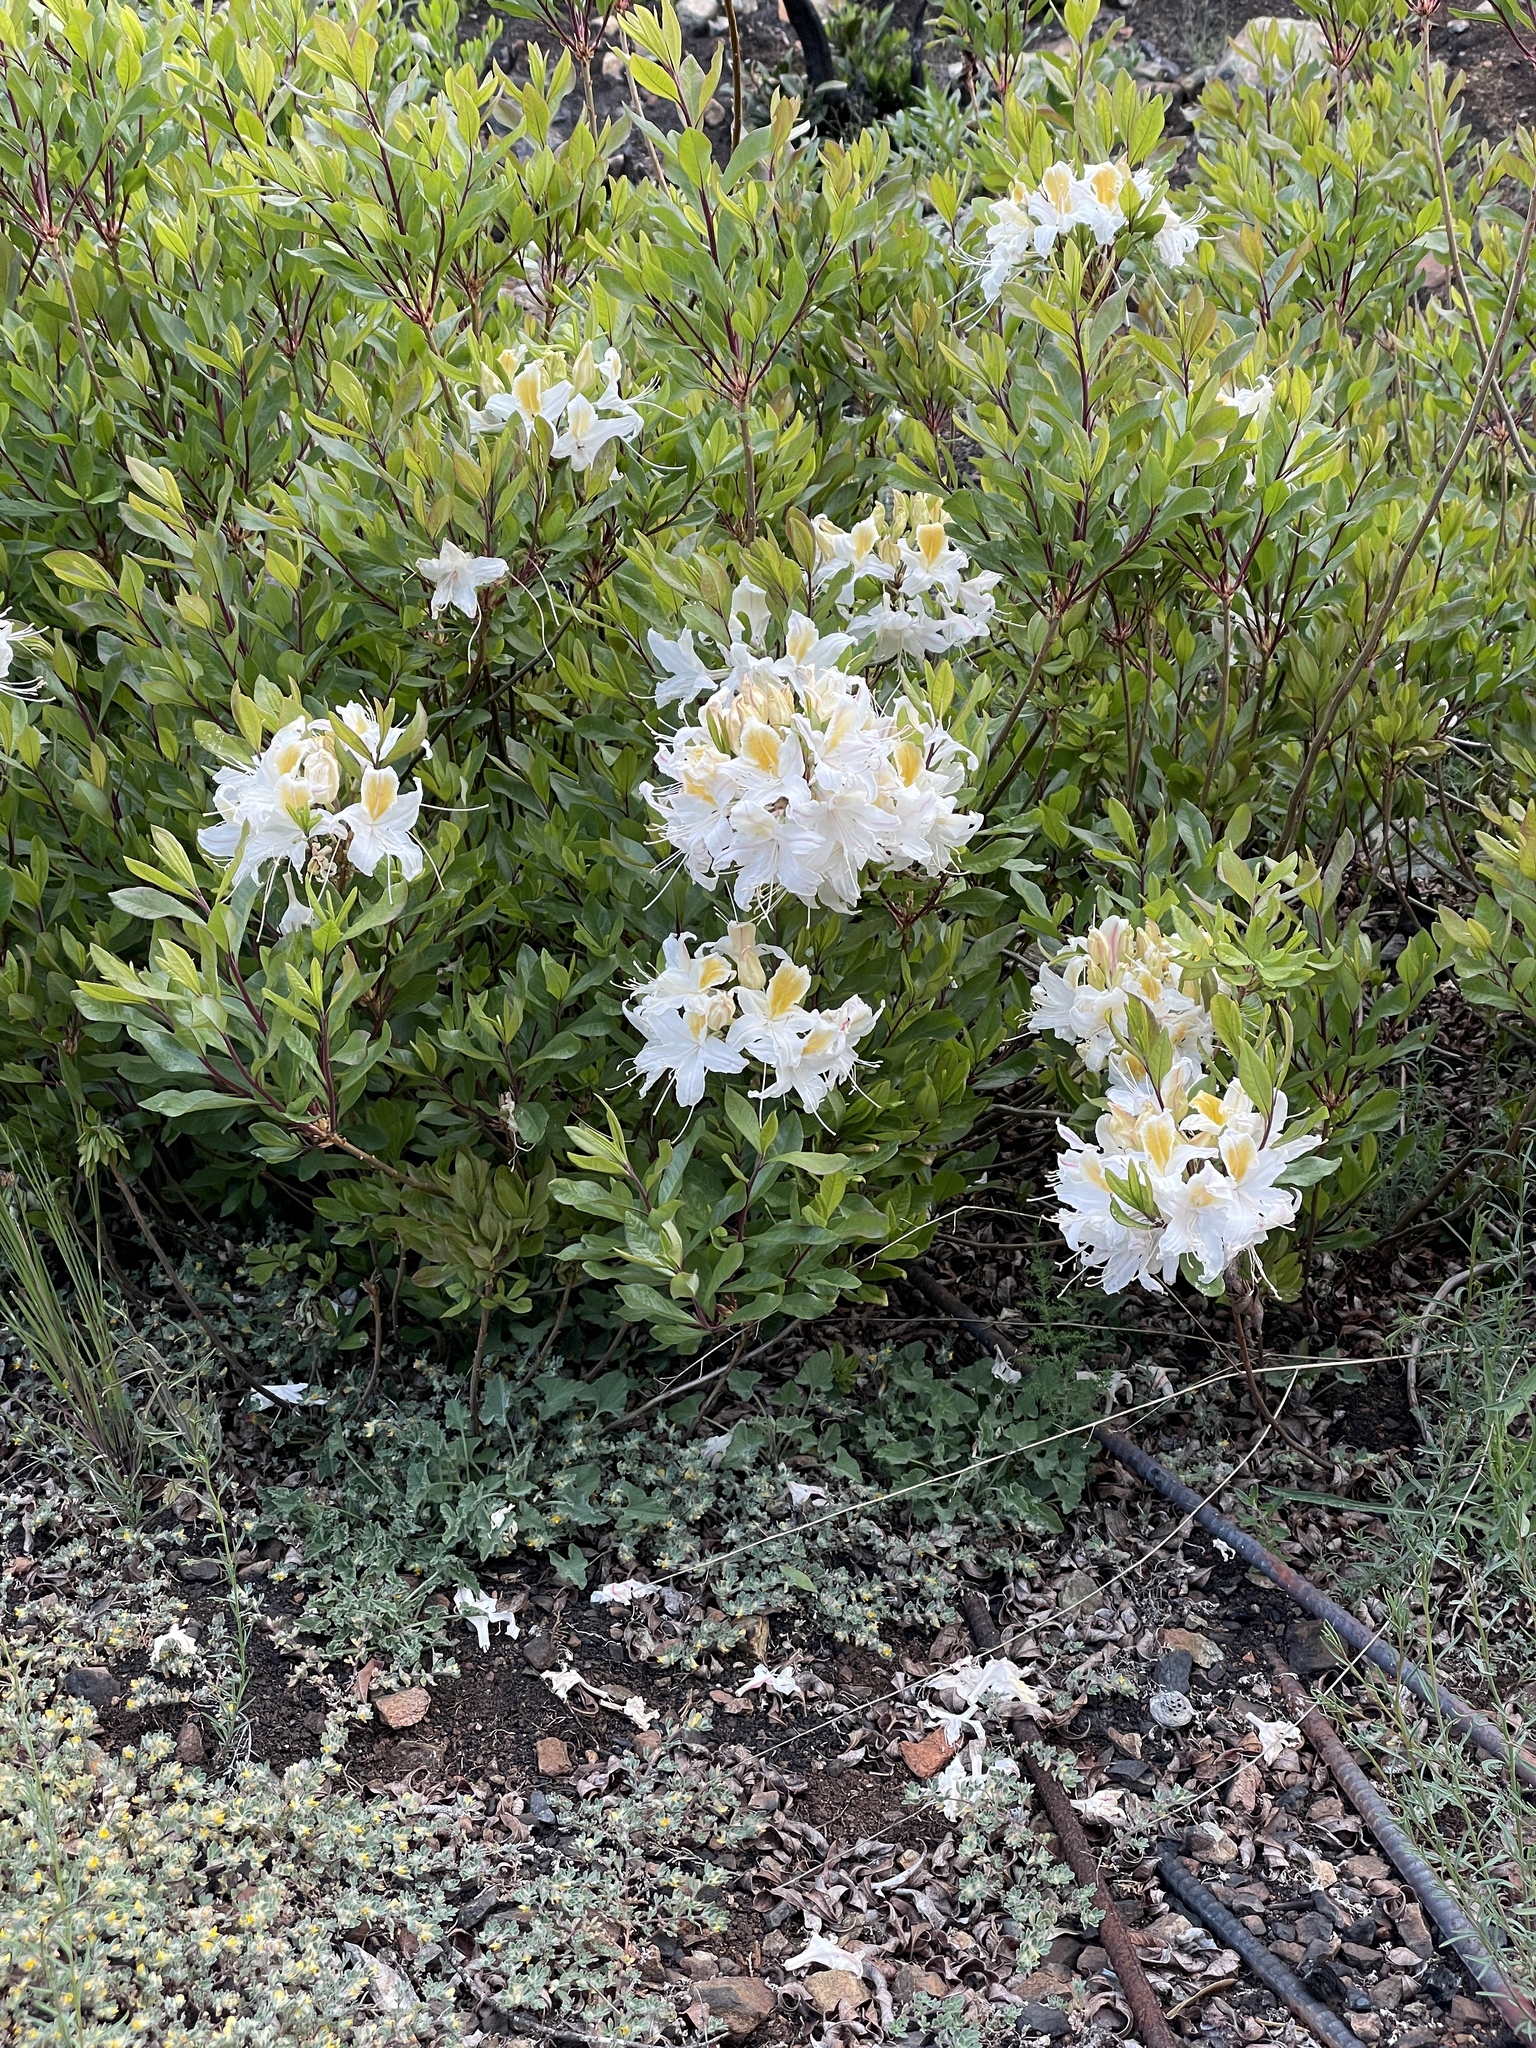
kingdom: Plantae
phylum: Tracheophyta
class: Magnoliopsida
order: Ericales
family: Ericaceae
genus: Rhododendron
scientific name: Rhododendron occidentale
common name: Western azalea
